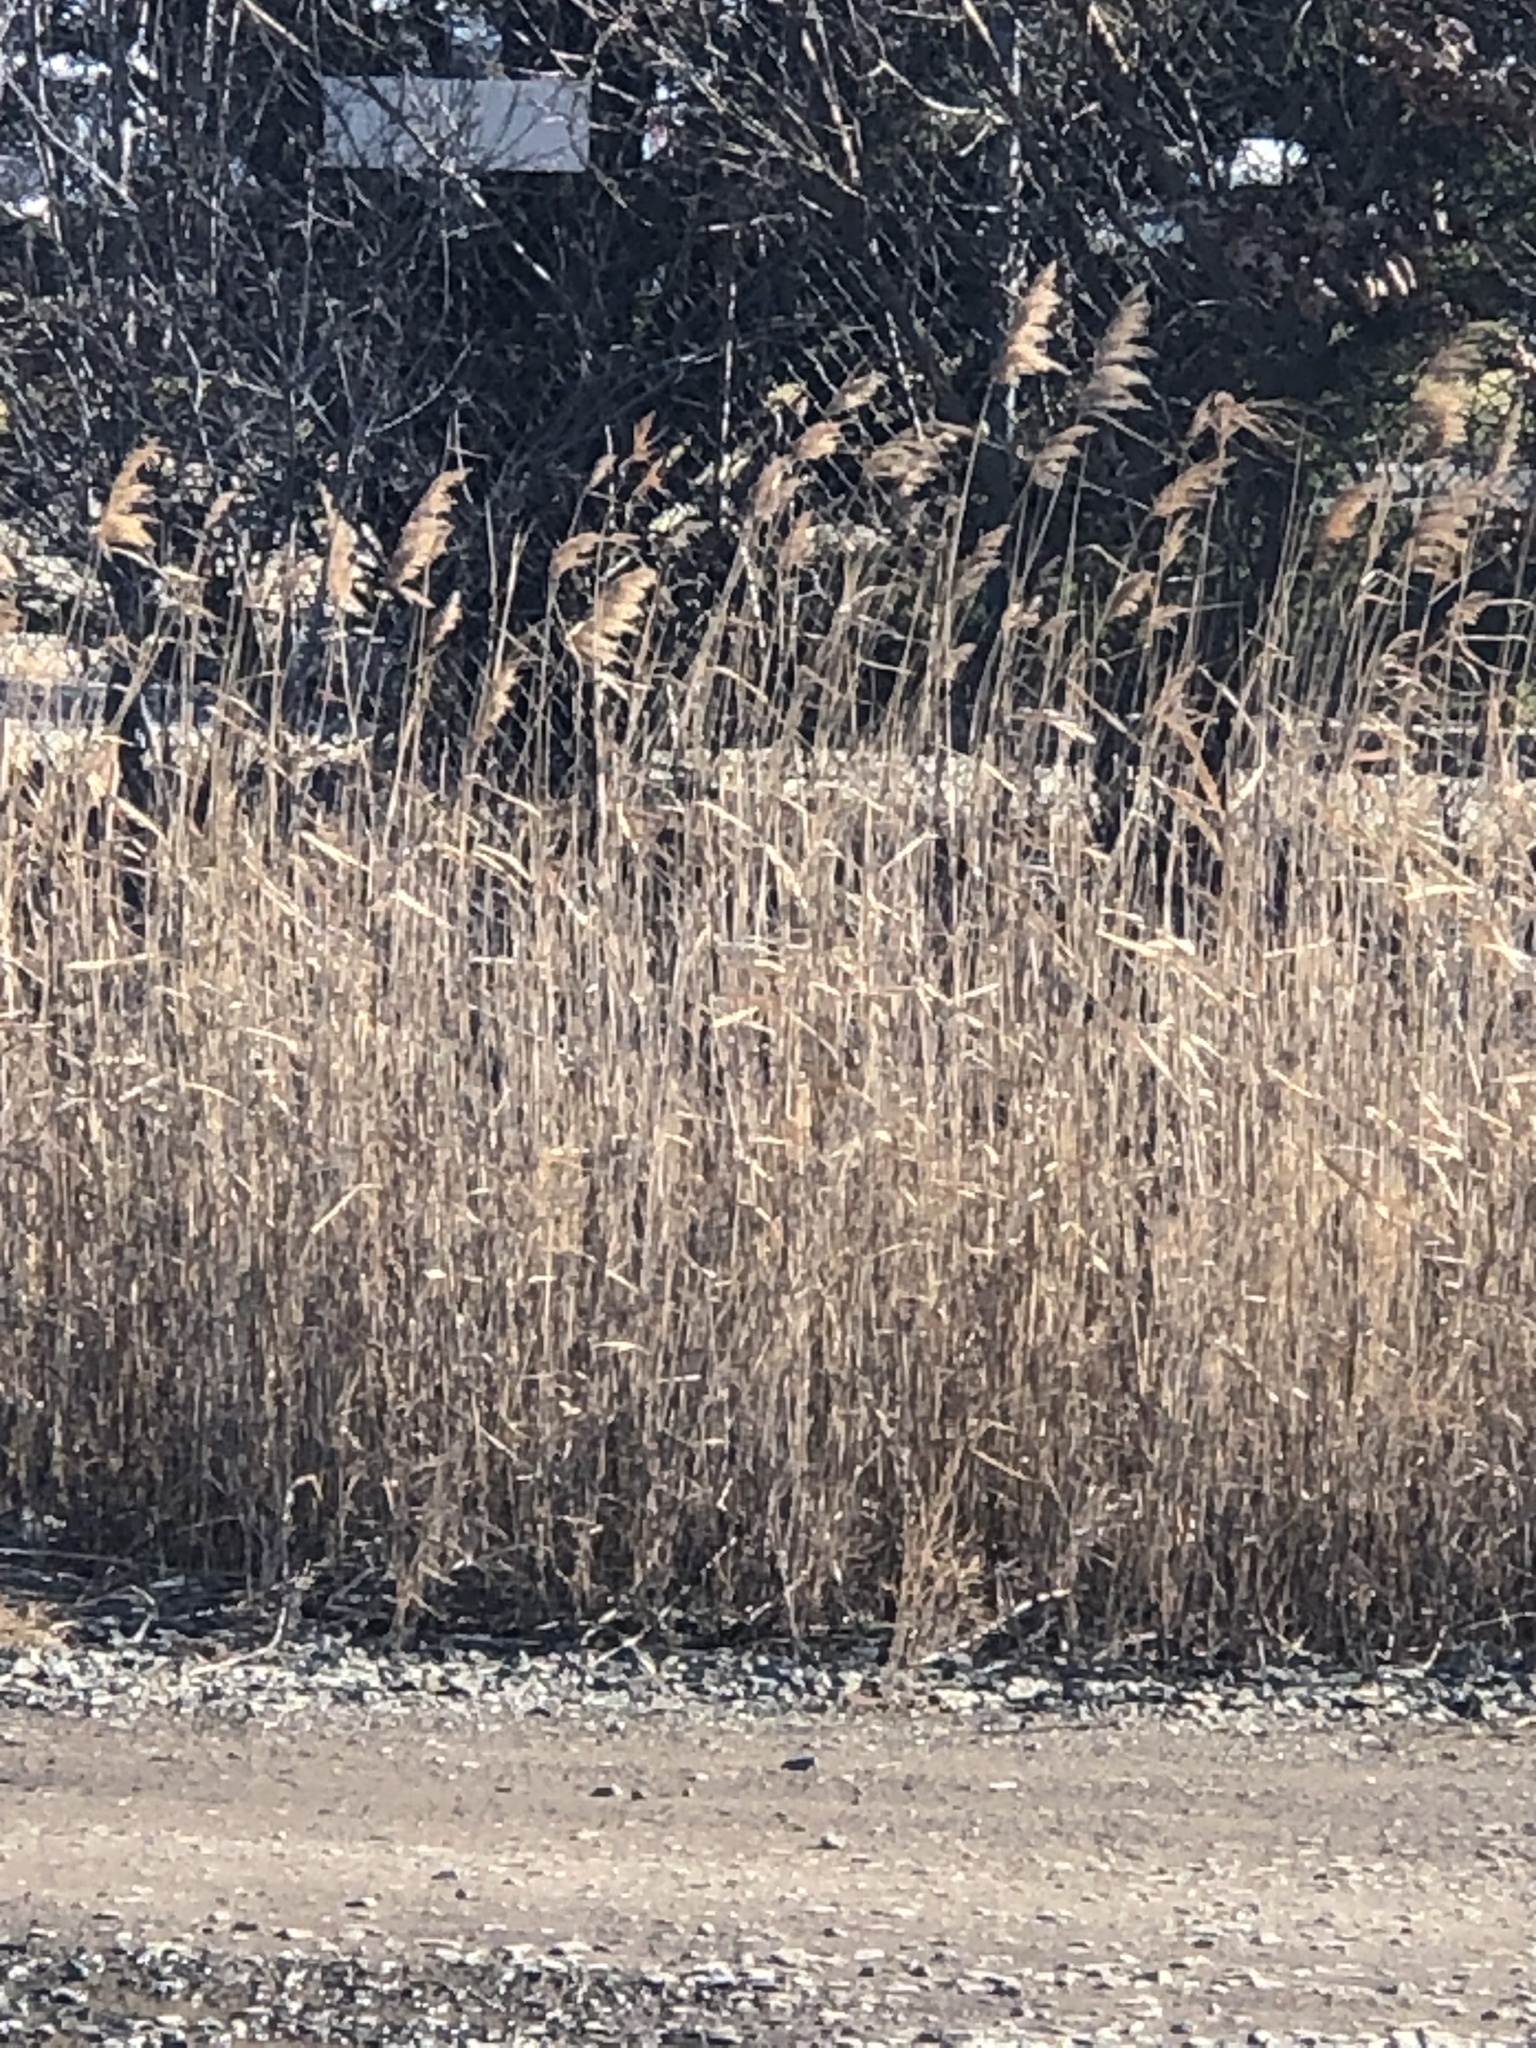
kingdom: Plantae
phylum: Tracheophyta
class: Liliopsida
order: Poales
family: Poaceae
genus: Phragmites
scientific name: Phragmites australis
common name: Common reed
